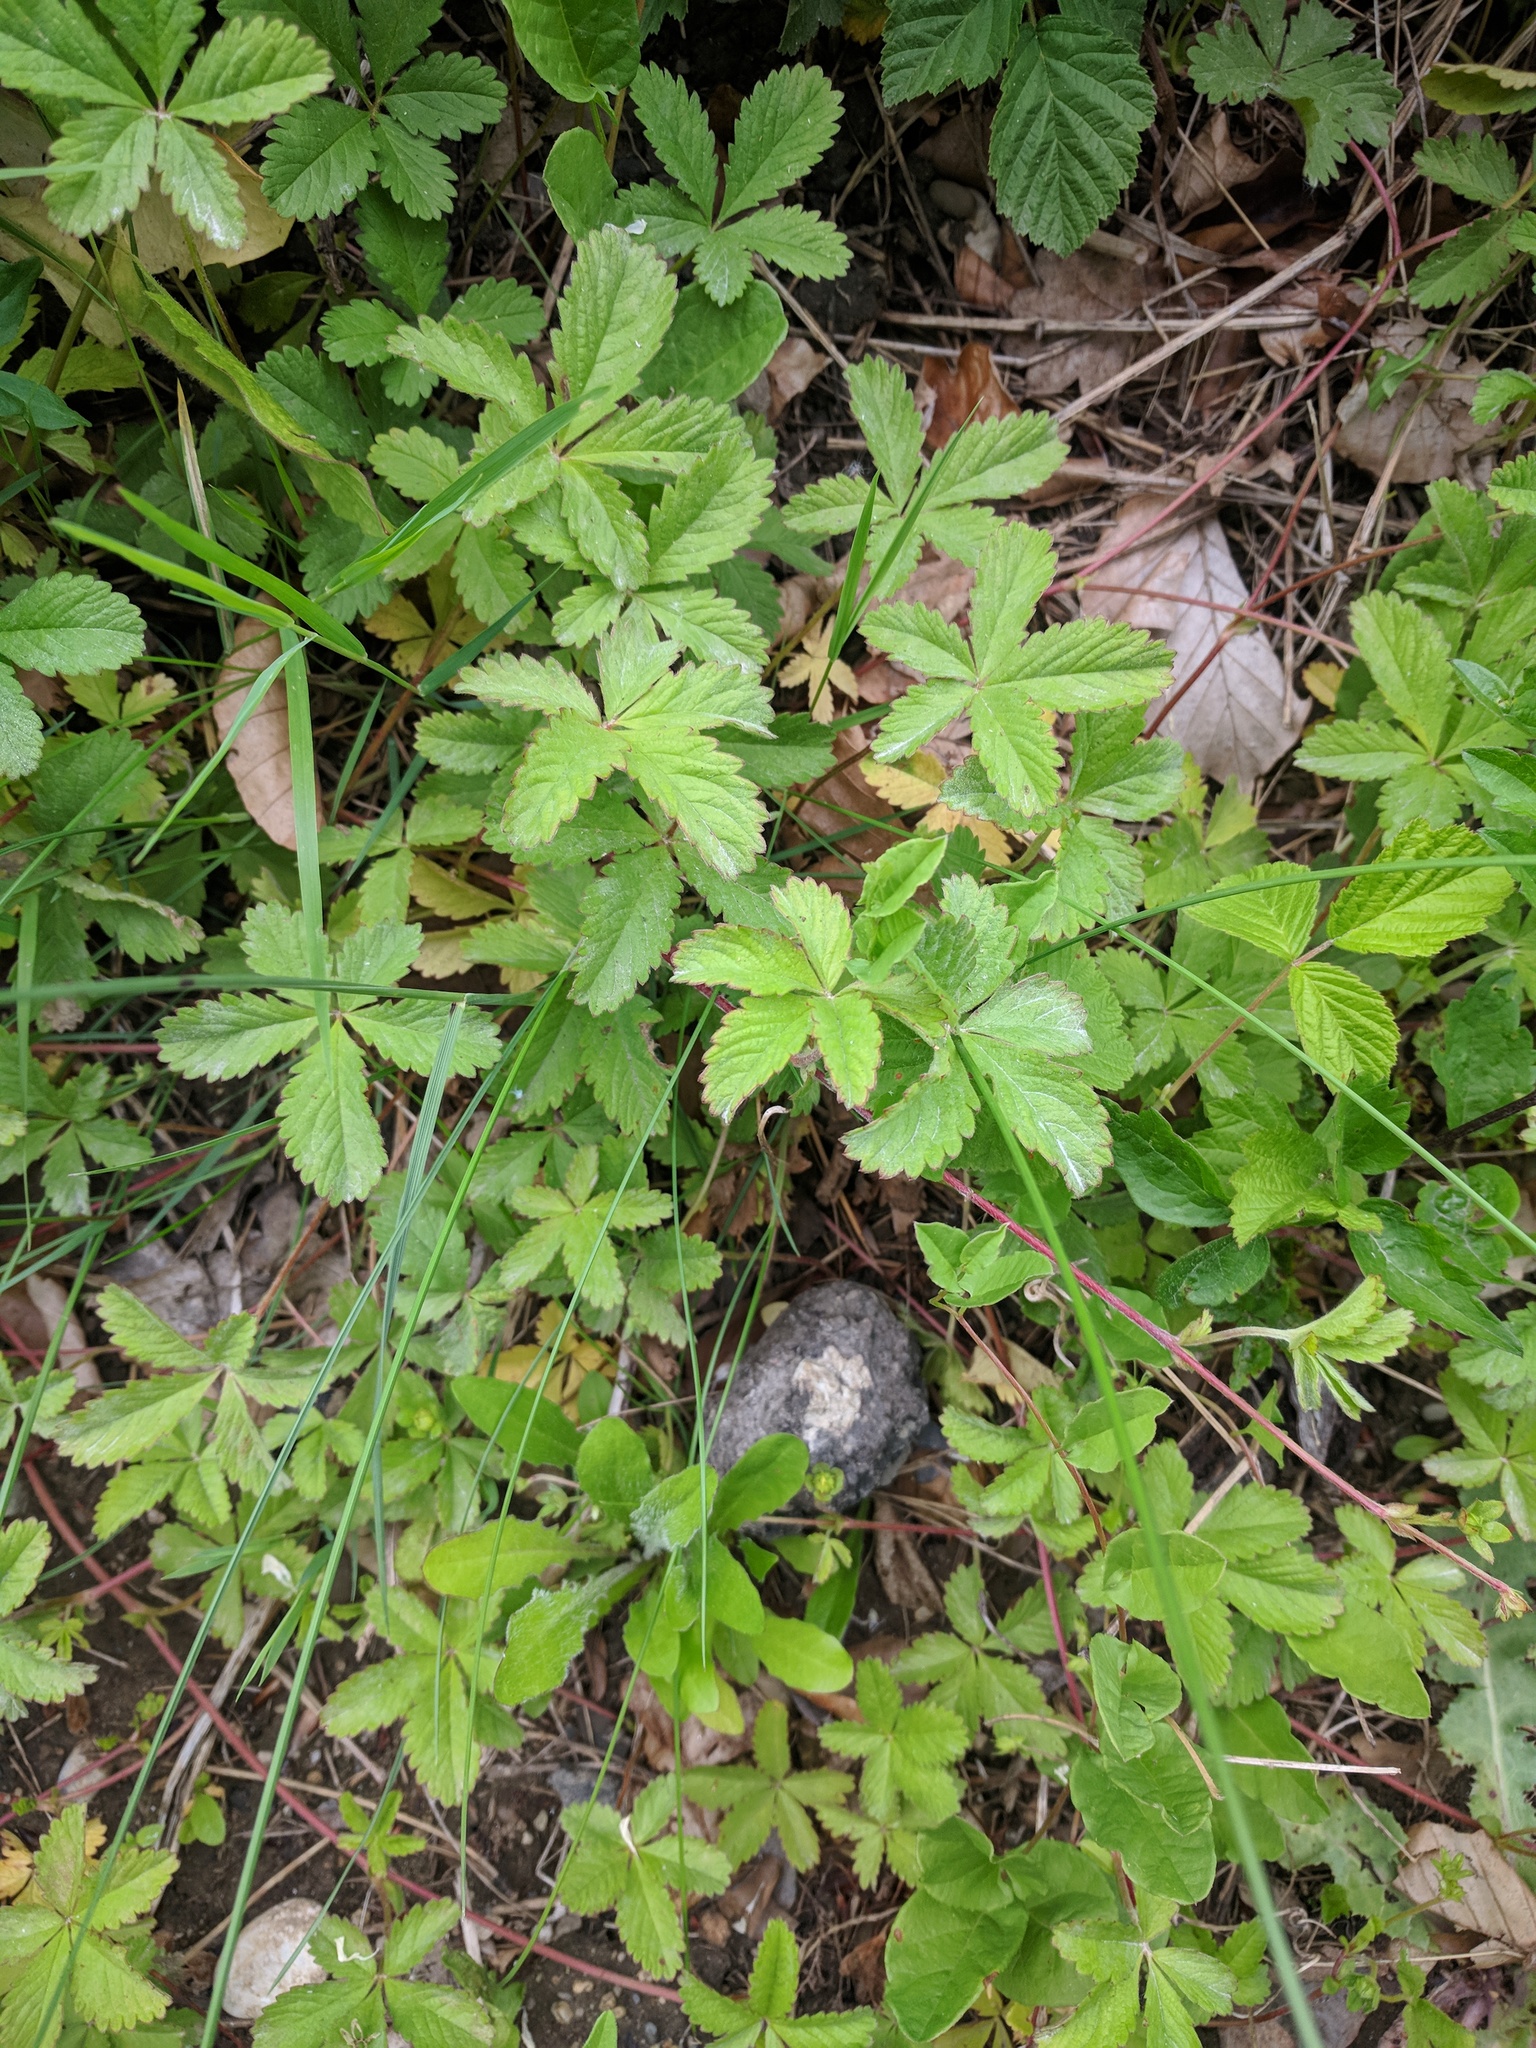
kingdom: Plantae
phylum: Tracheophyta
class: Magnoliopsida
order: Rosales
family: Rosaceae
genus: Potentilla
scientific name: Potentilla reptans
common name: Creeping cinquefoil
